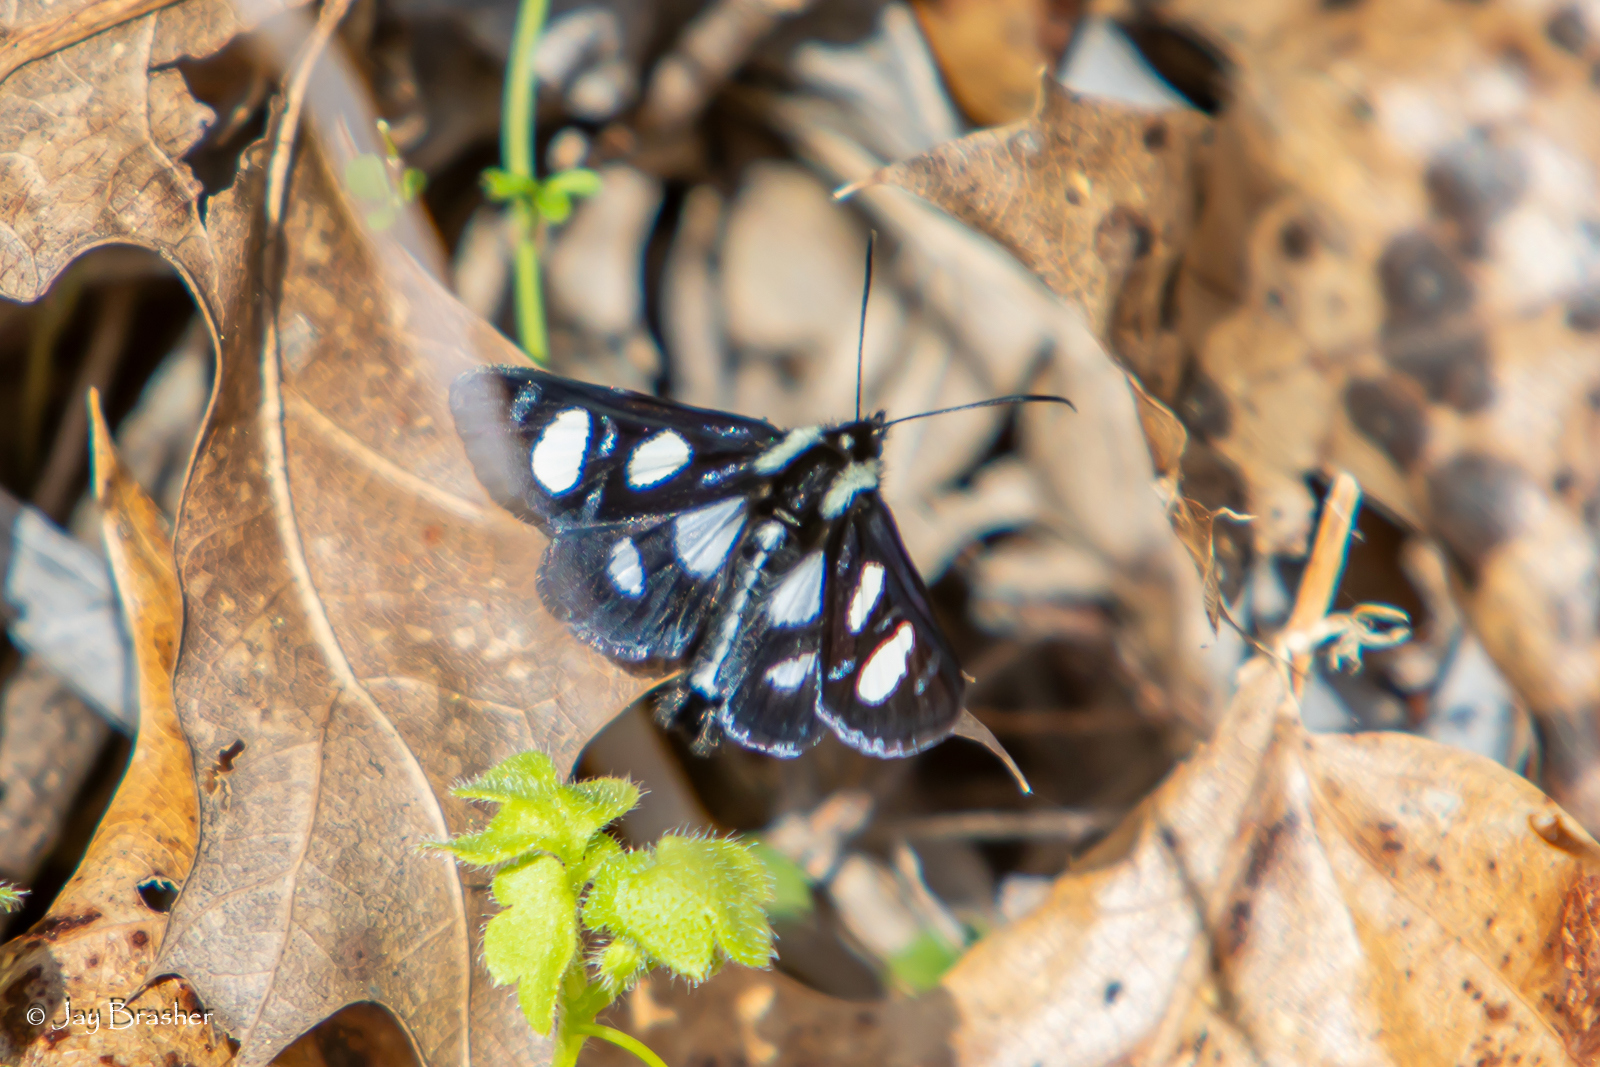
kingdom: Animalia
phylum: Arthropoda
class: Insecta
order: Lepidoptera
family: Noctuidae
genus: Alypia
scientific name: Alypia octomaculata
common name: Eight-spotted forester
